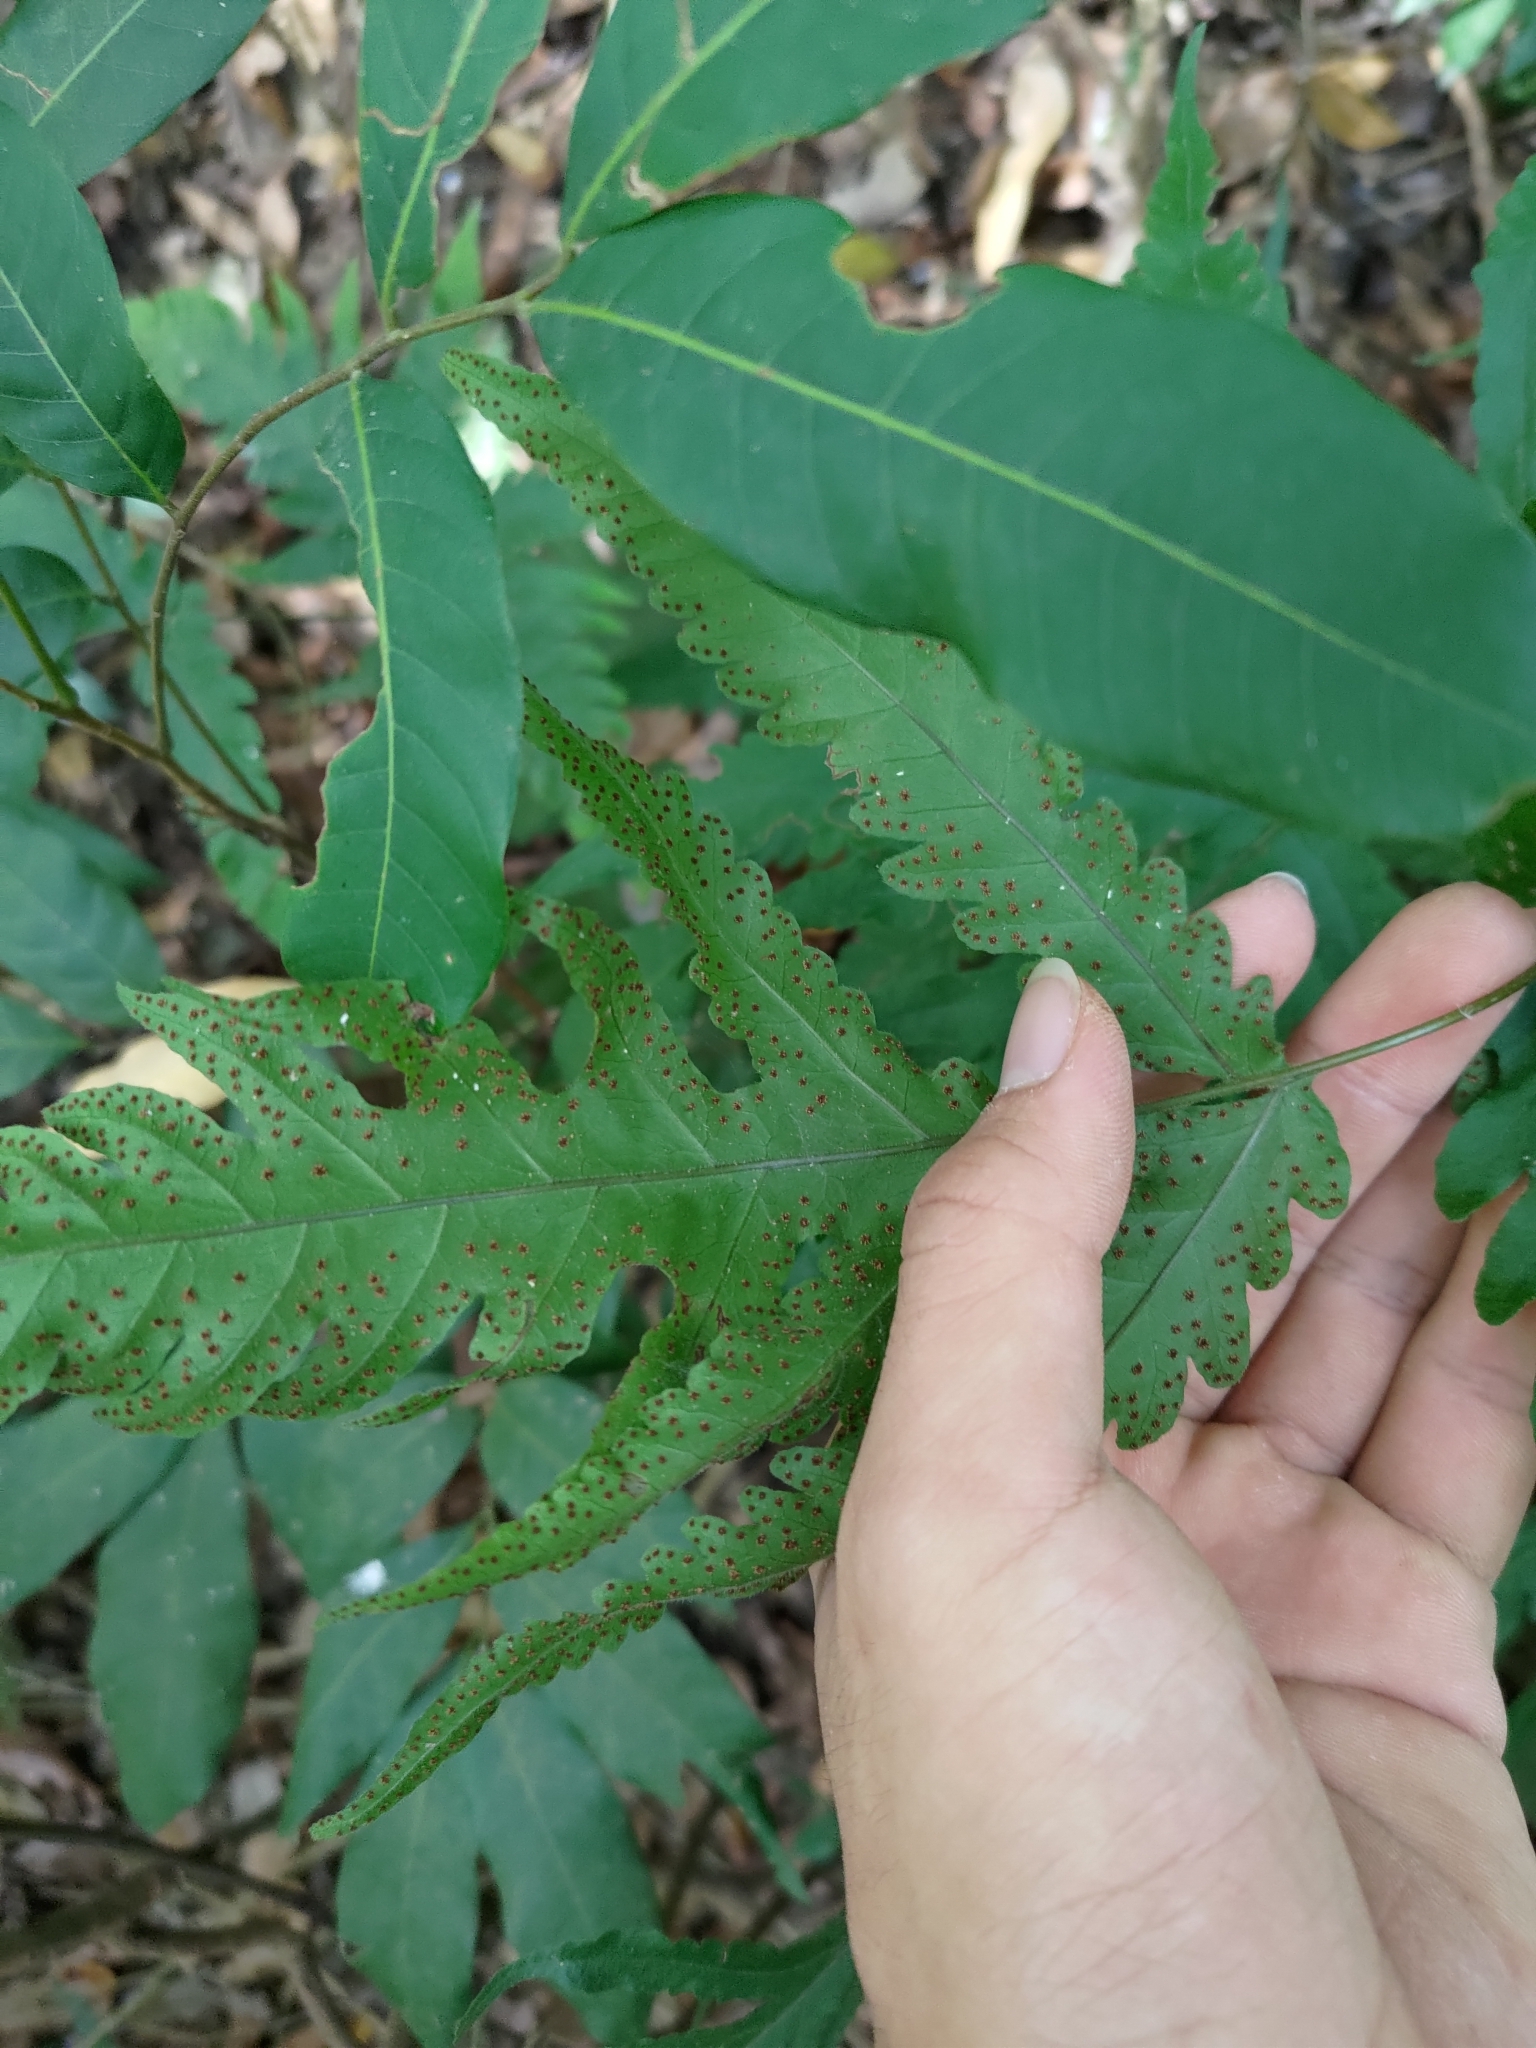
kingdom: Plantae
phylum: Tracheophyta
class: Polypodiopsida
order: Polypodiales
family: Tectariaceae
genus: Tectaria
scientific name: Tectaria subtriphylla
